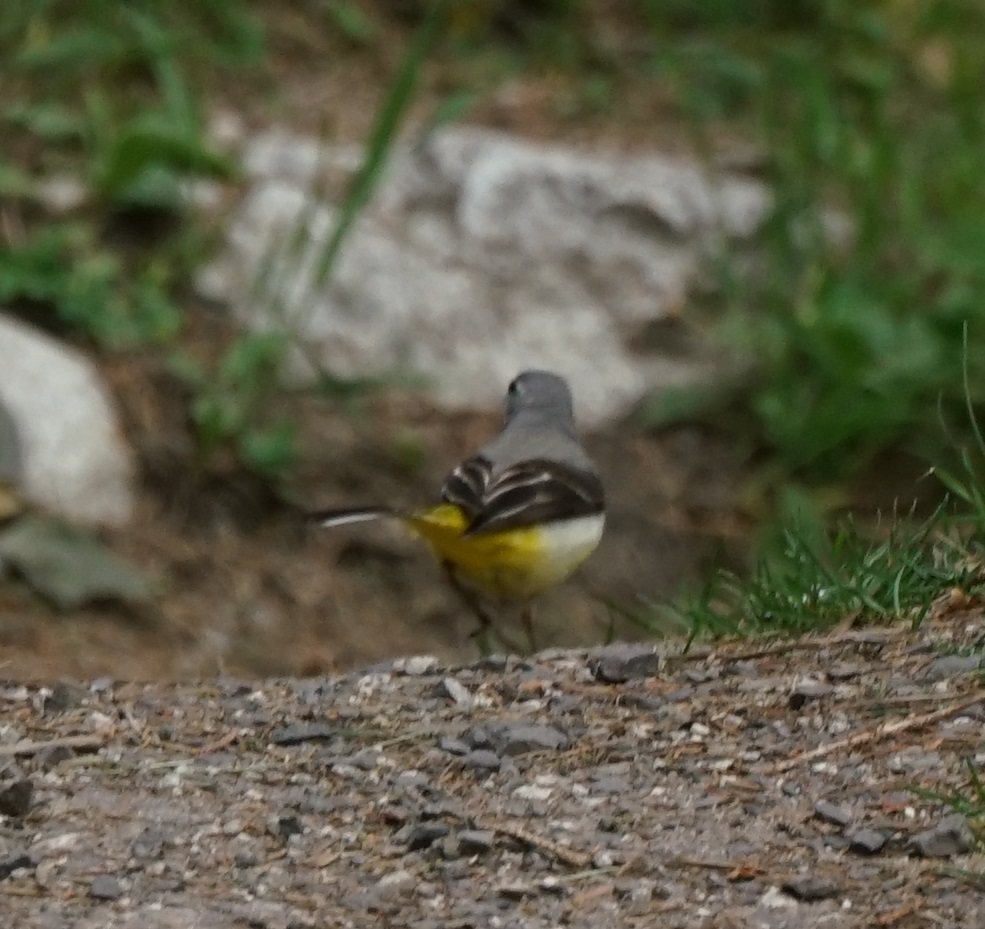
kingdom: Animalia
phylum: Chordata
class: Aves
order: Passeriformes
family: Motacillidae
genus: Motacilla
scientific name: Motacilla cinerea
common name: Grey wagtail
